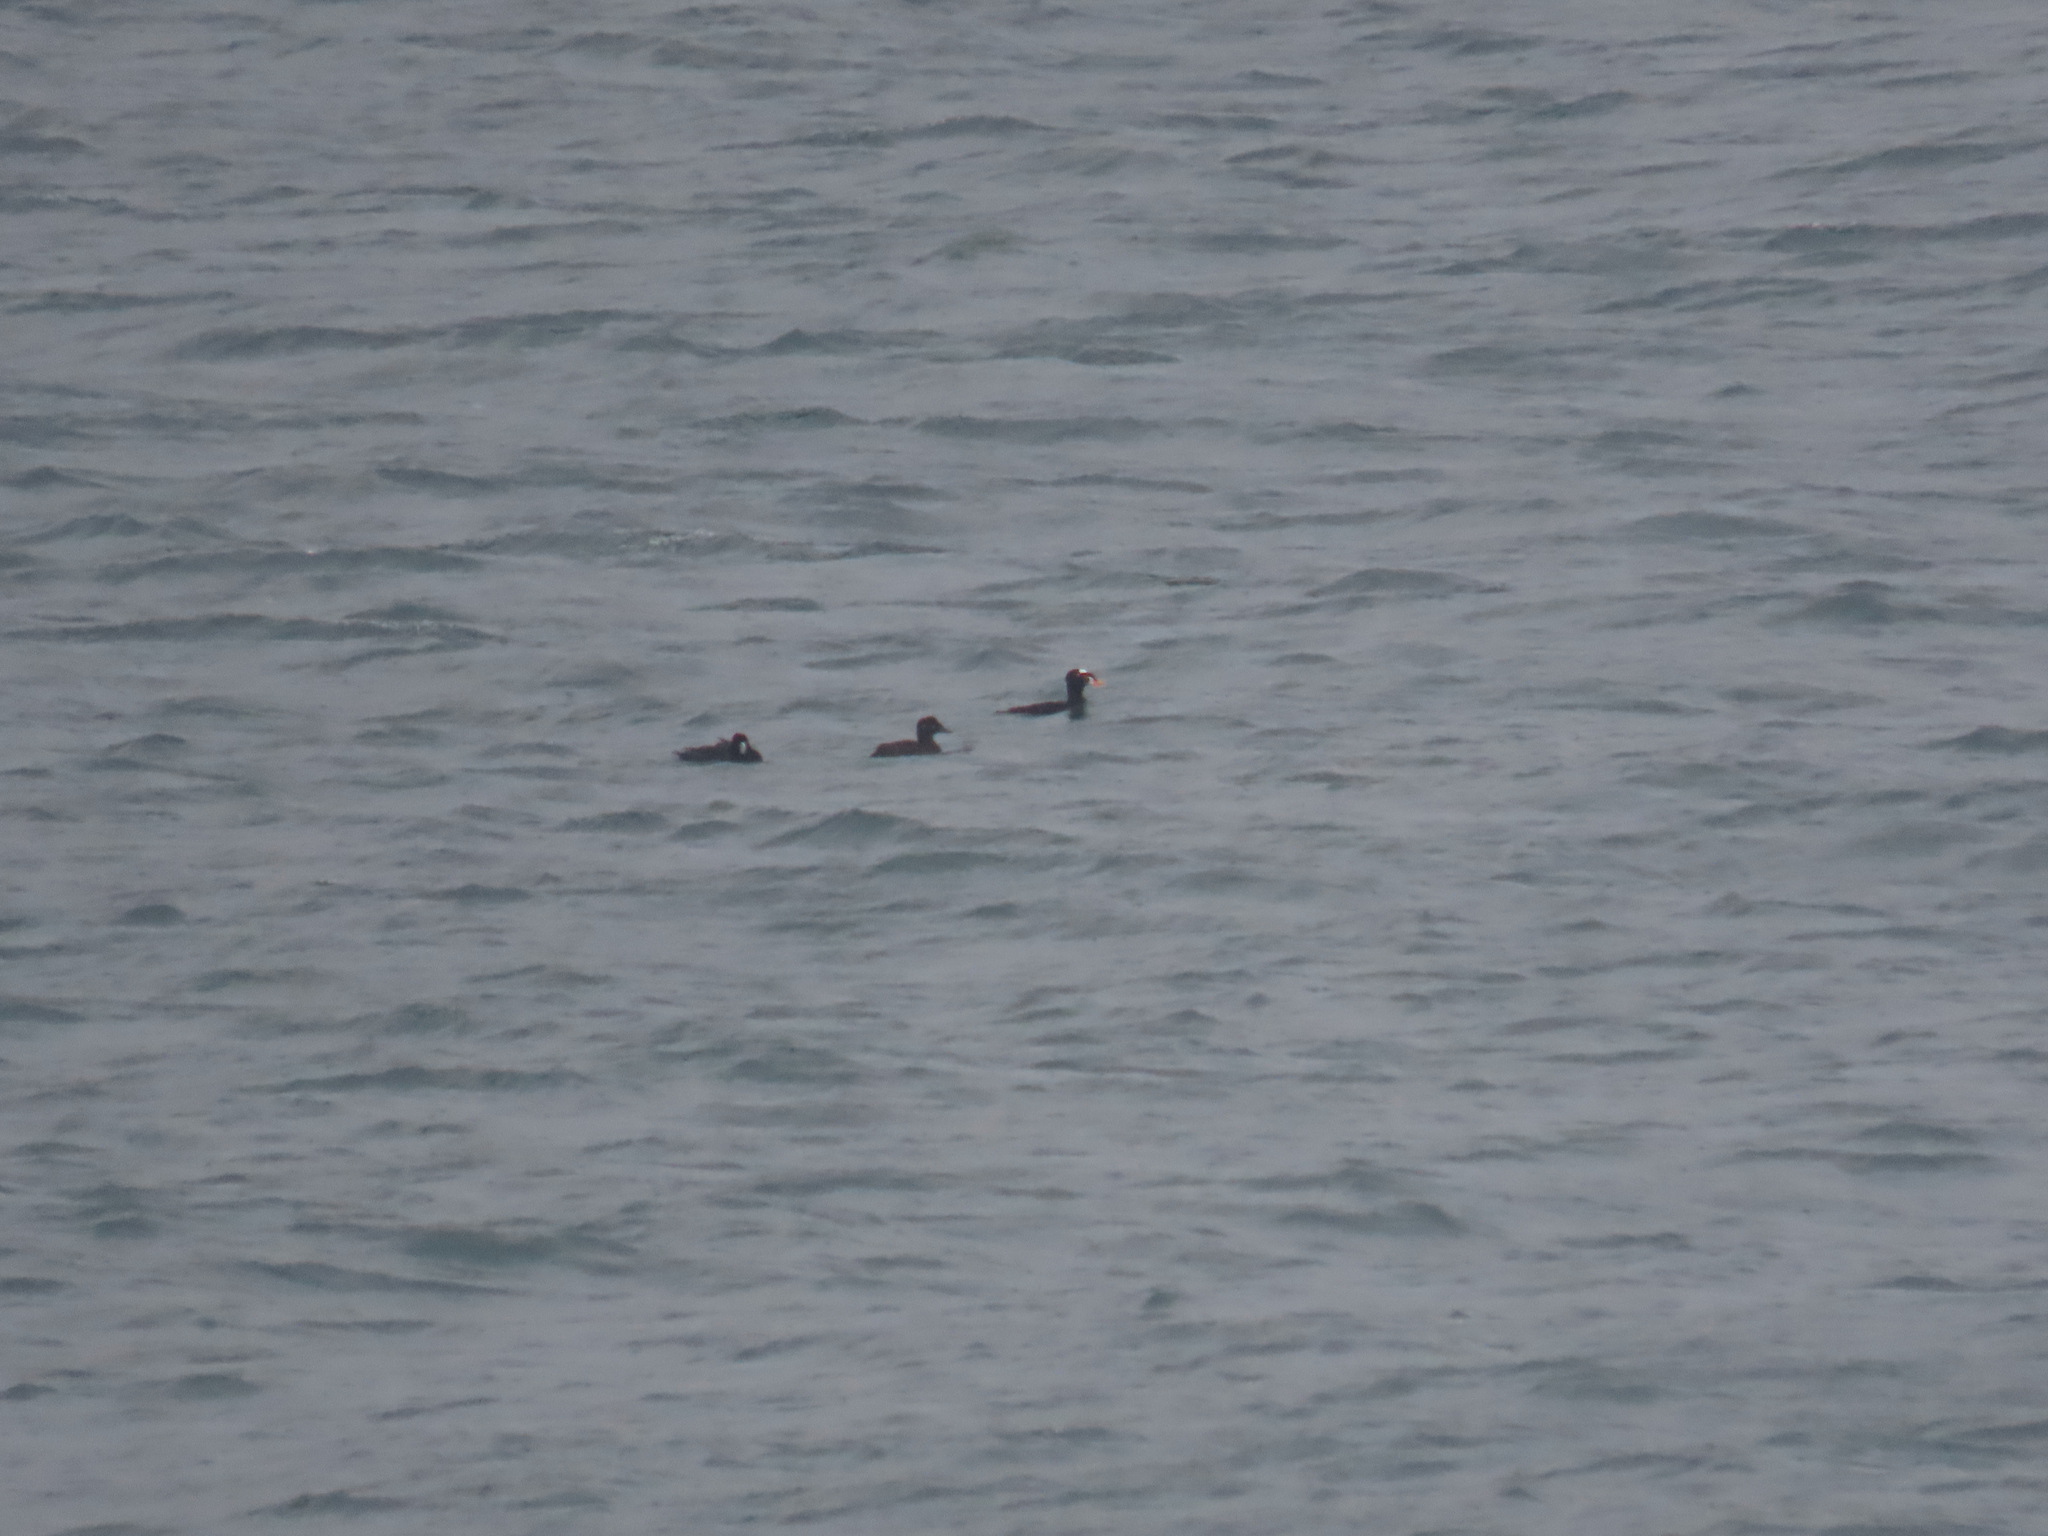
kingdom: Animalia
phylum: Chordata
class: Aves
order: Anseriformes
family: Anatidae
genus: Melanitta
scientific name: Melanitta perspicillata
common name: Surf scoter
